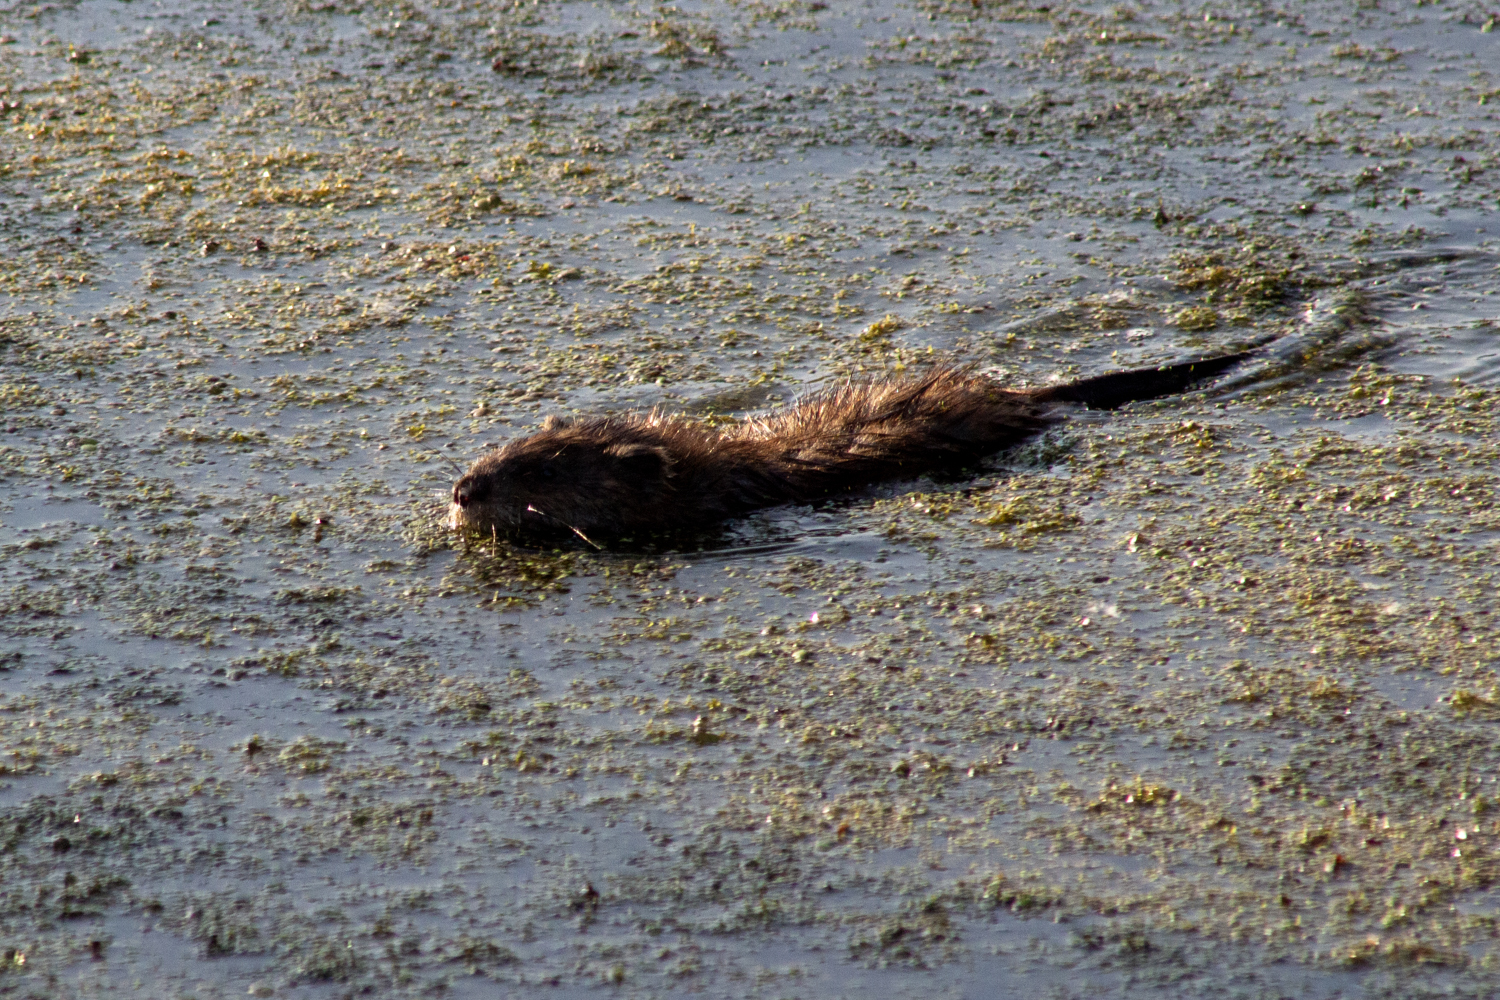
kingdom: Animalia
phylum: Chordata
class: Mammalia
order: Rodentia
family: Cricetidae
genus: Ondatra
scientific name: Ondatra zibethicus
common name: Muskrat
